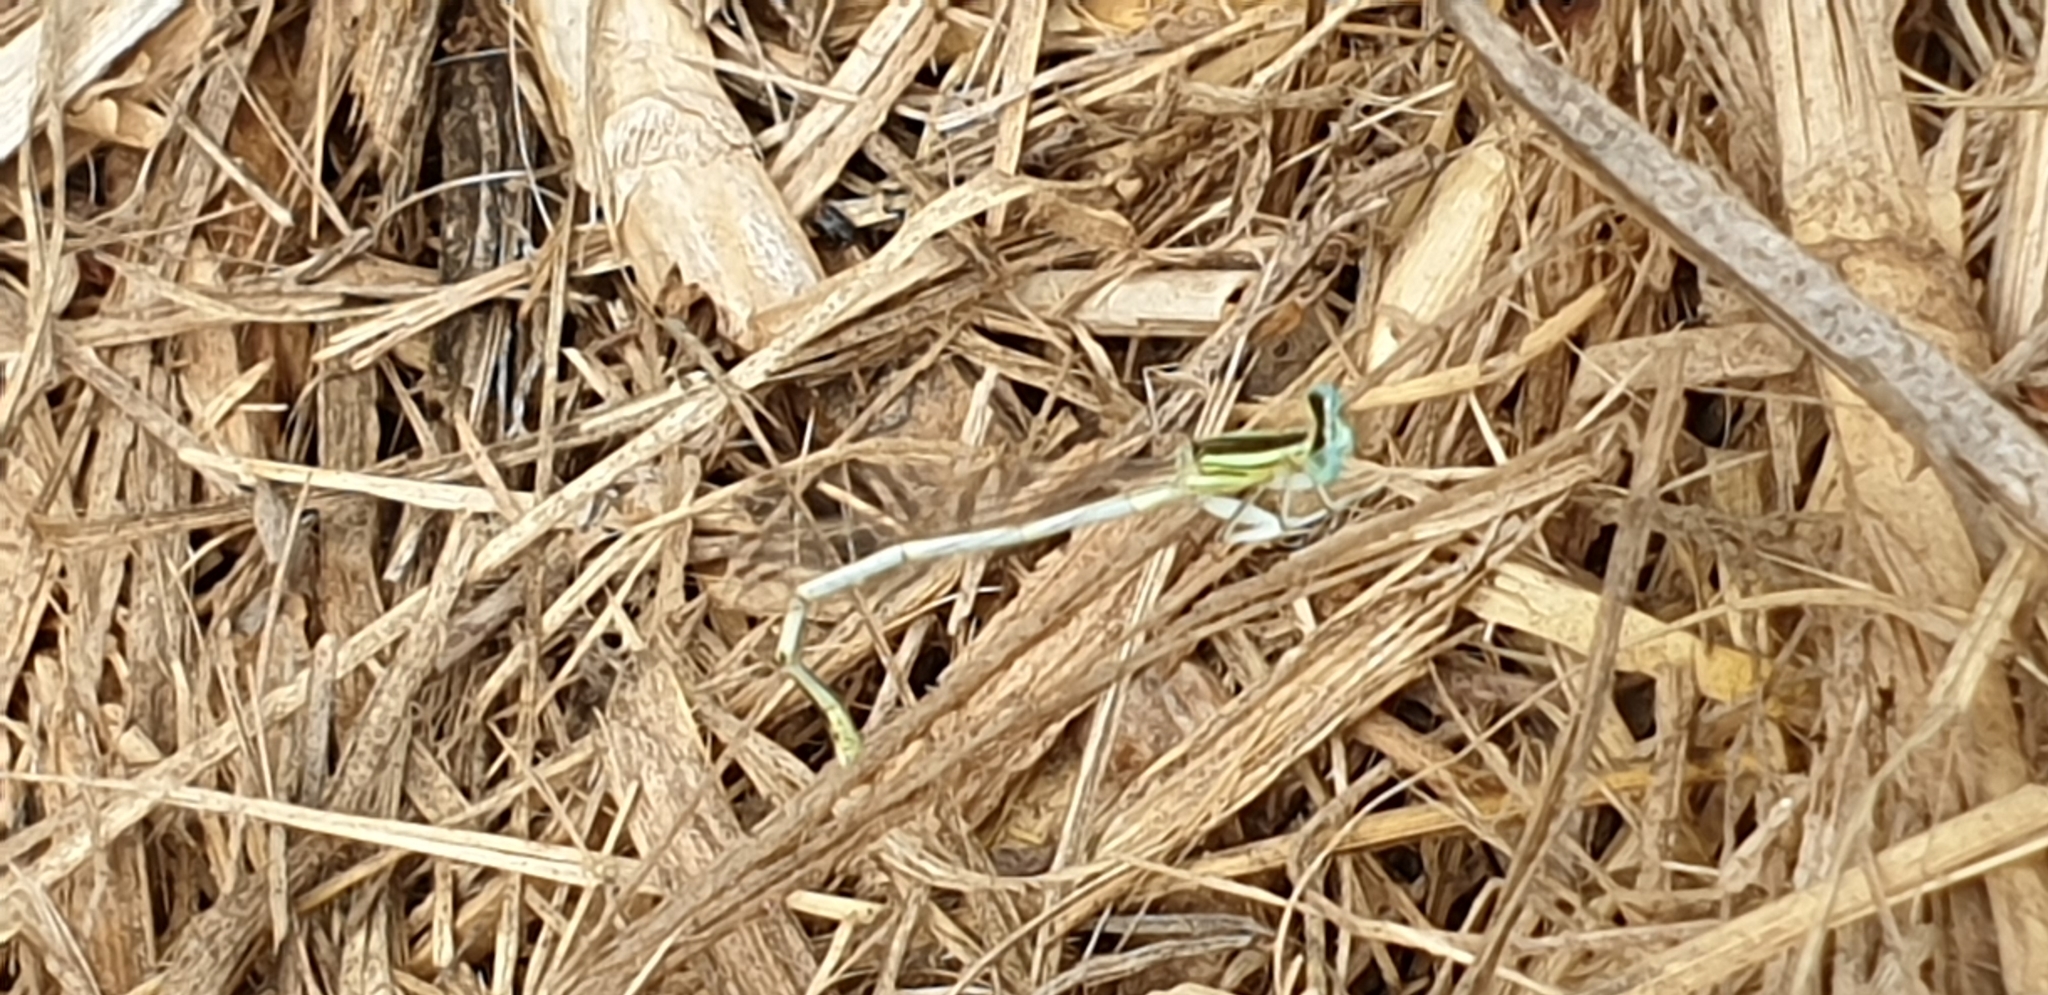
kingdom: Animalia
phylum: Arthropoda
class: Insecta
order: Odonata
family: Platycnemididae
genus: Platycnemis
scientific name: Platycnemis latipes
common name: White featherleg
